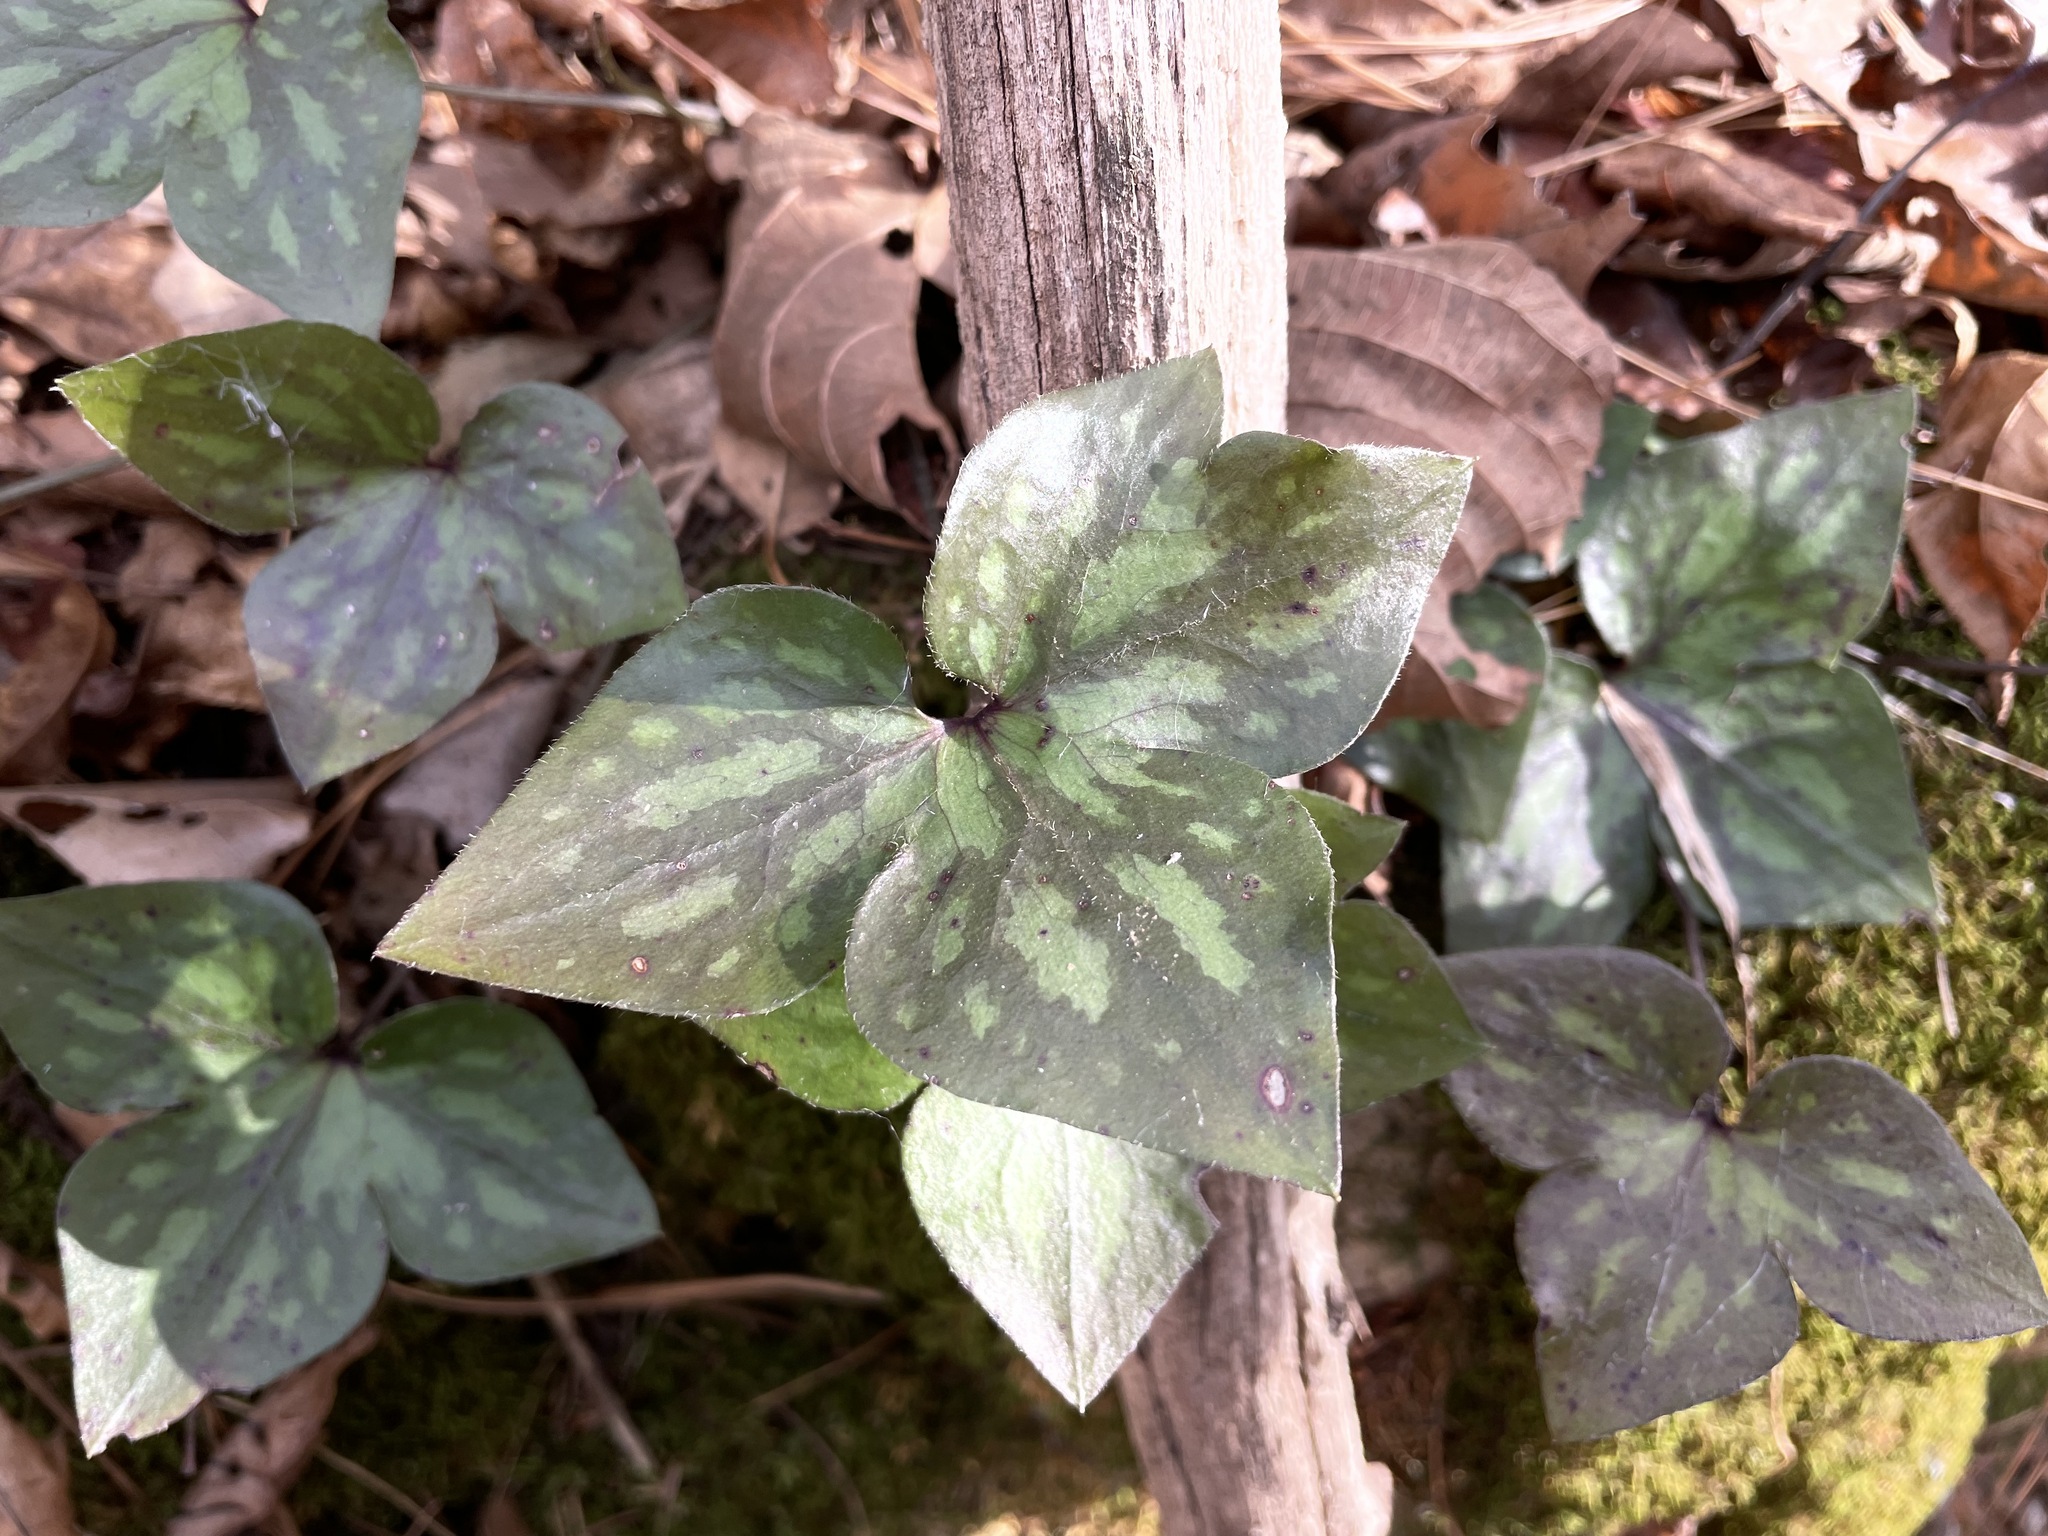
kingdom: Plantae
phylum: Tracheophyta
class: Magnoliopsida
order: Ranunculales
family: Ranunculaceae
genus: Hepatica
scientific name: Hepatica acutiloba
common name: Sharp-lobed hepatica
